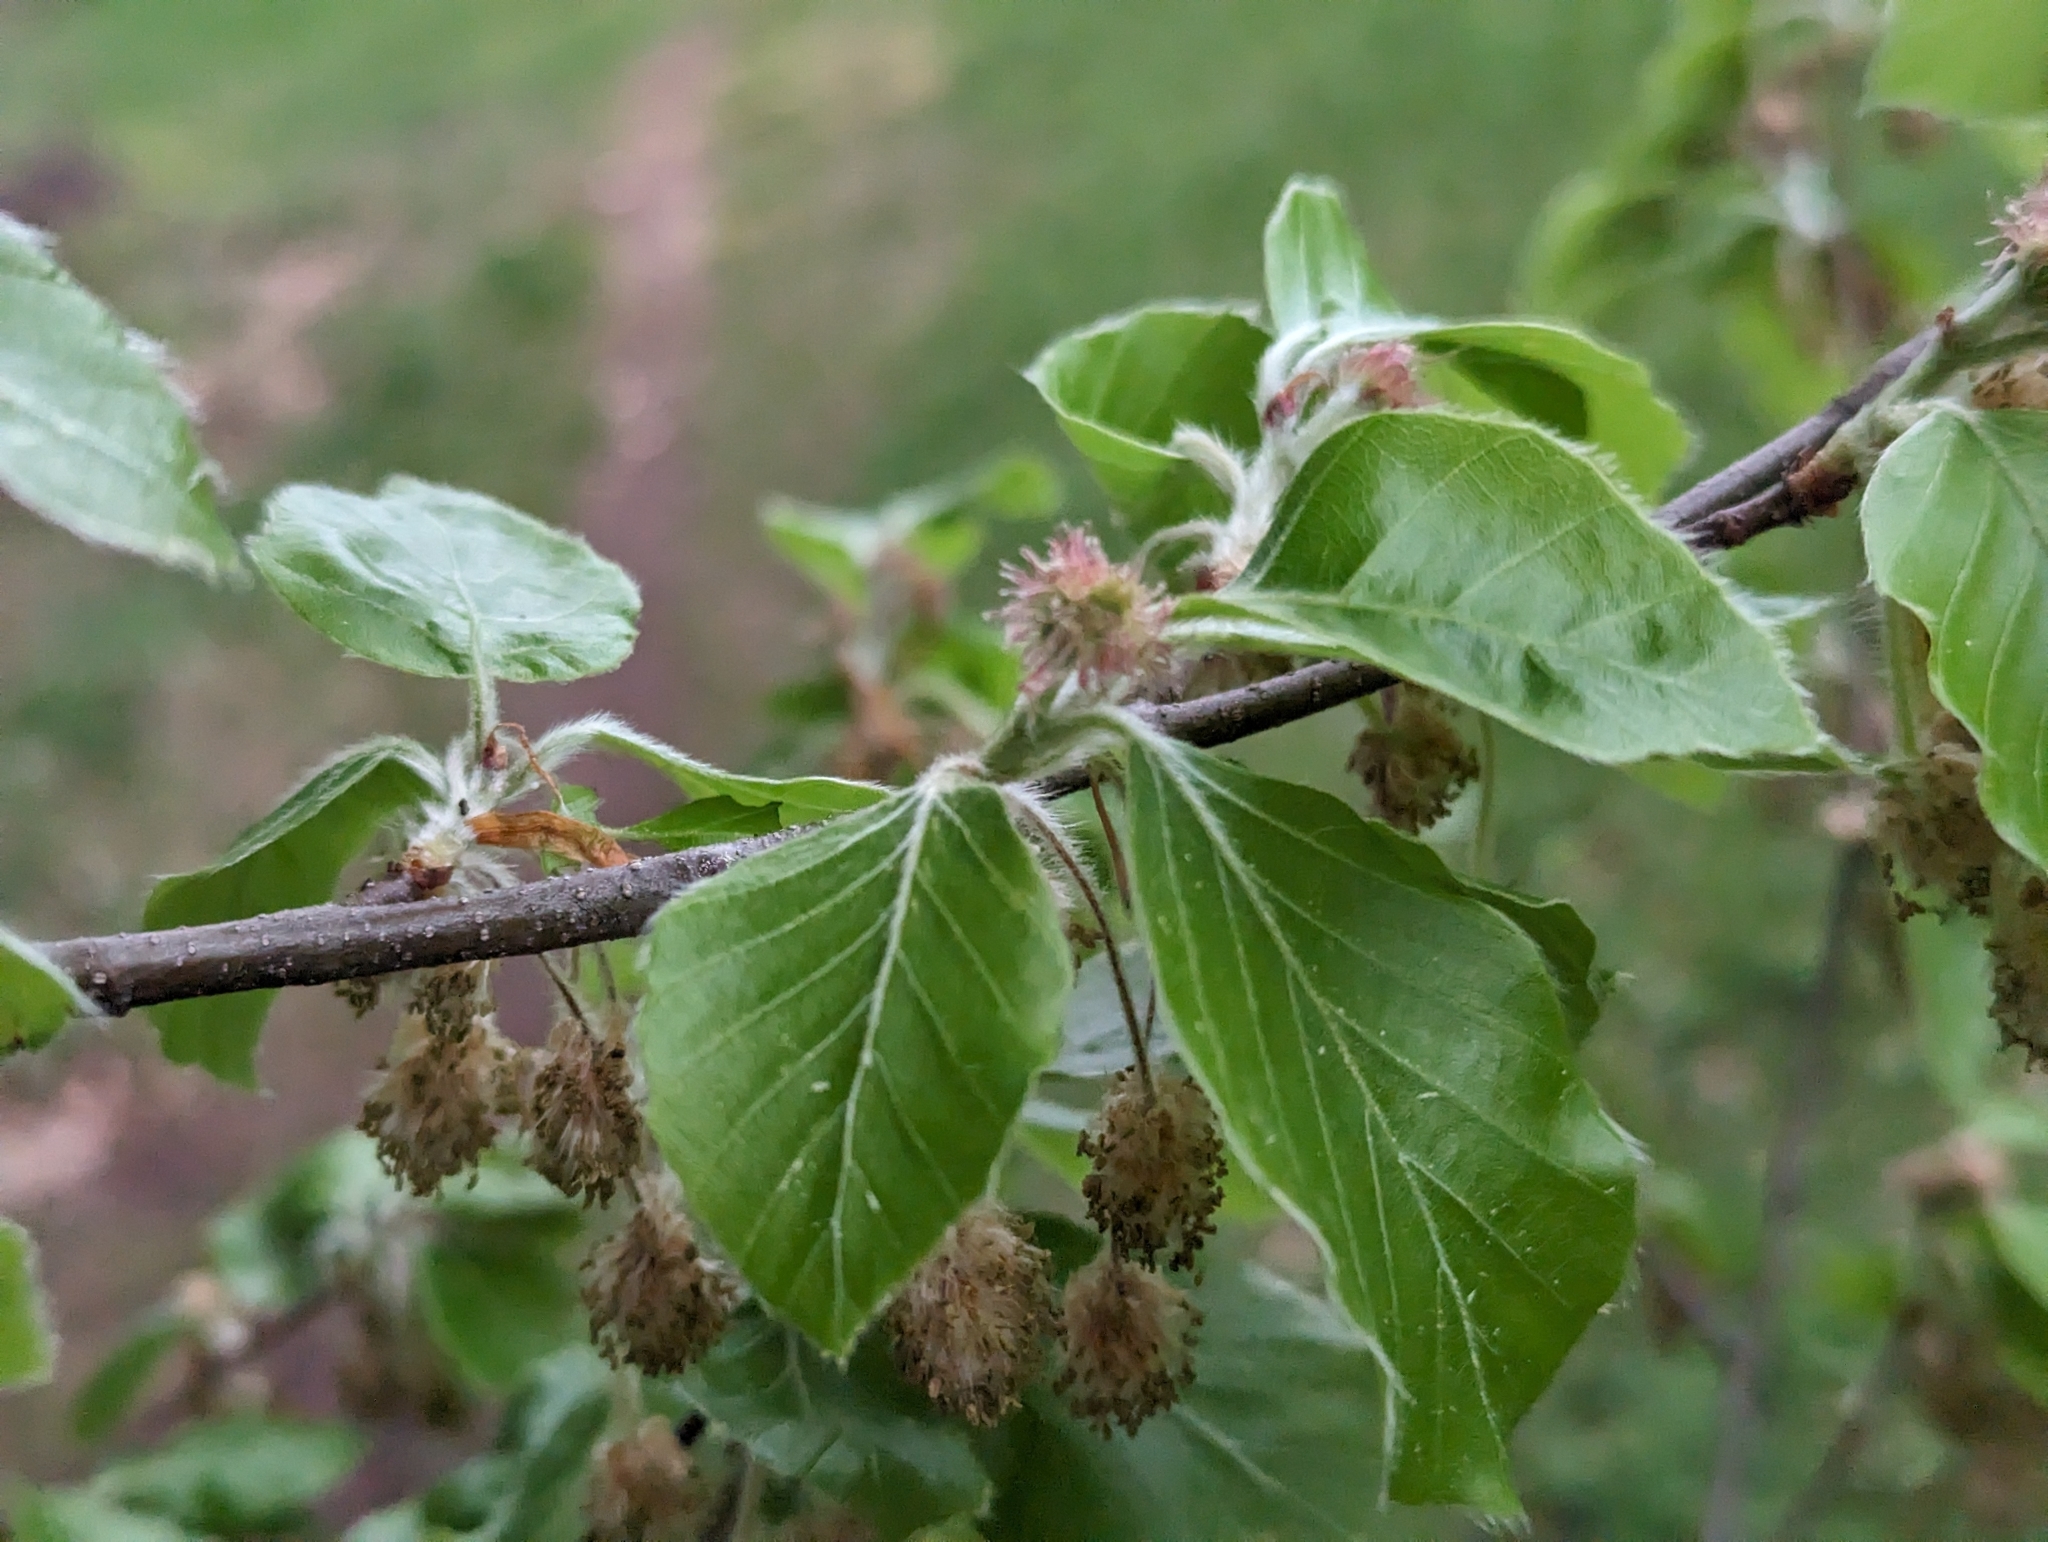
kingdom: Plantae
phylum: Tracheophyta
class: Magnoliopsida
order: Fagales
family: Fagaceae
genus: Fagus
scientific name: Fagus sylvatica
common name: Beech
